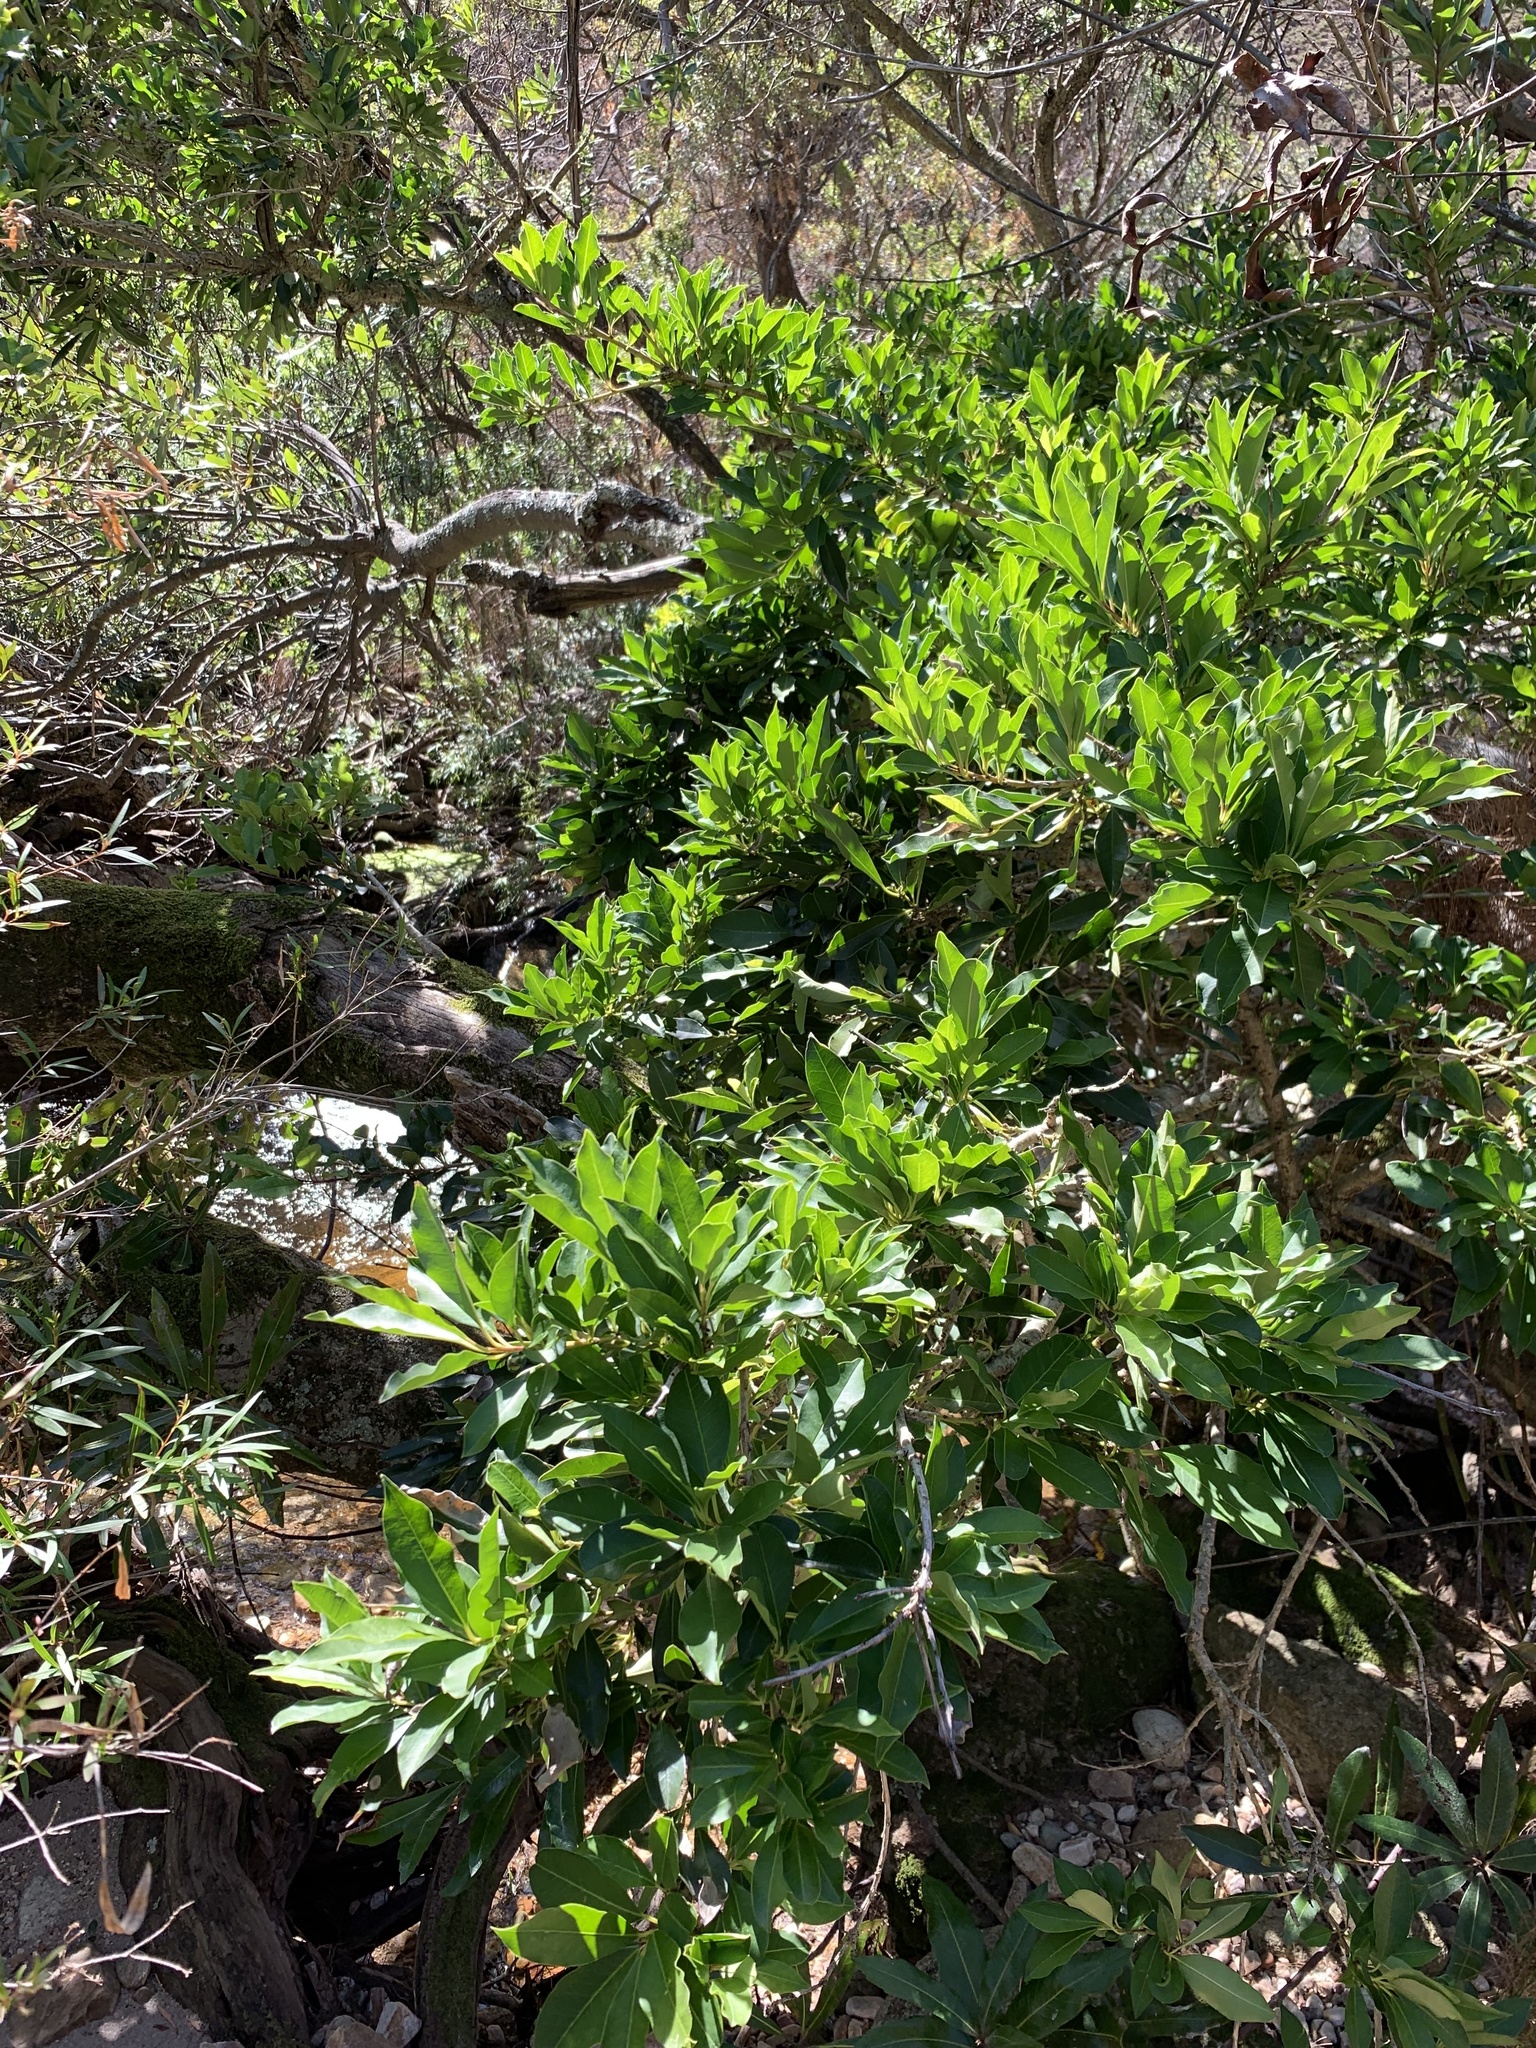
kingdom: Plantae
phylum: Tracheophyta
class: Magnoliopsida
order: Aquifoliales
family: Aquifoliaceae
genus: Ilex
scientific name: Ilex mitis
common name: African holly
